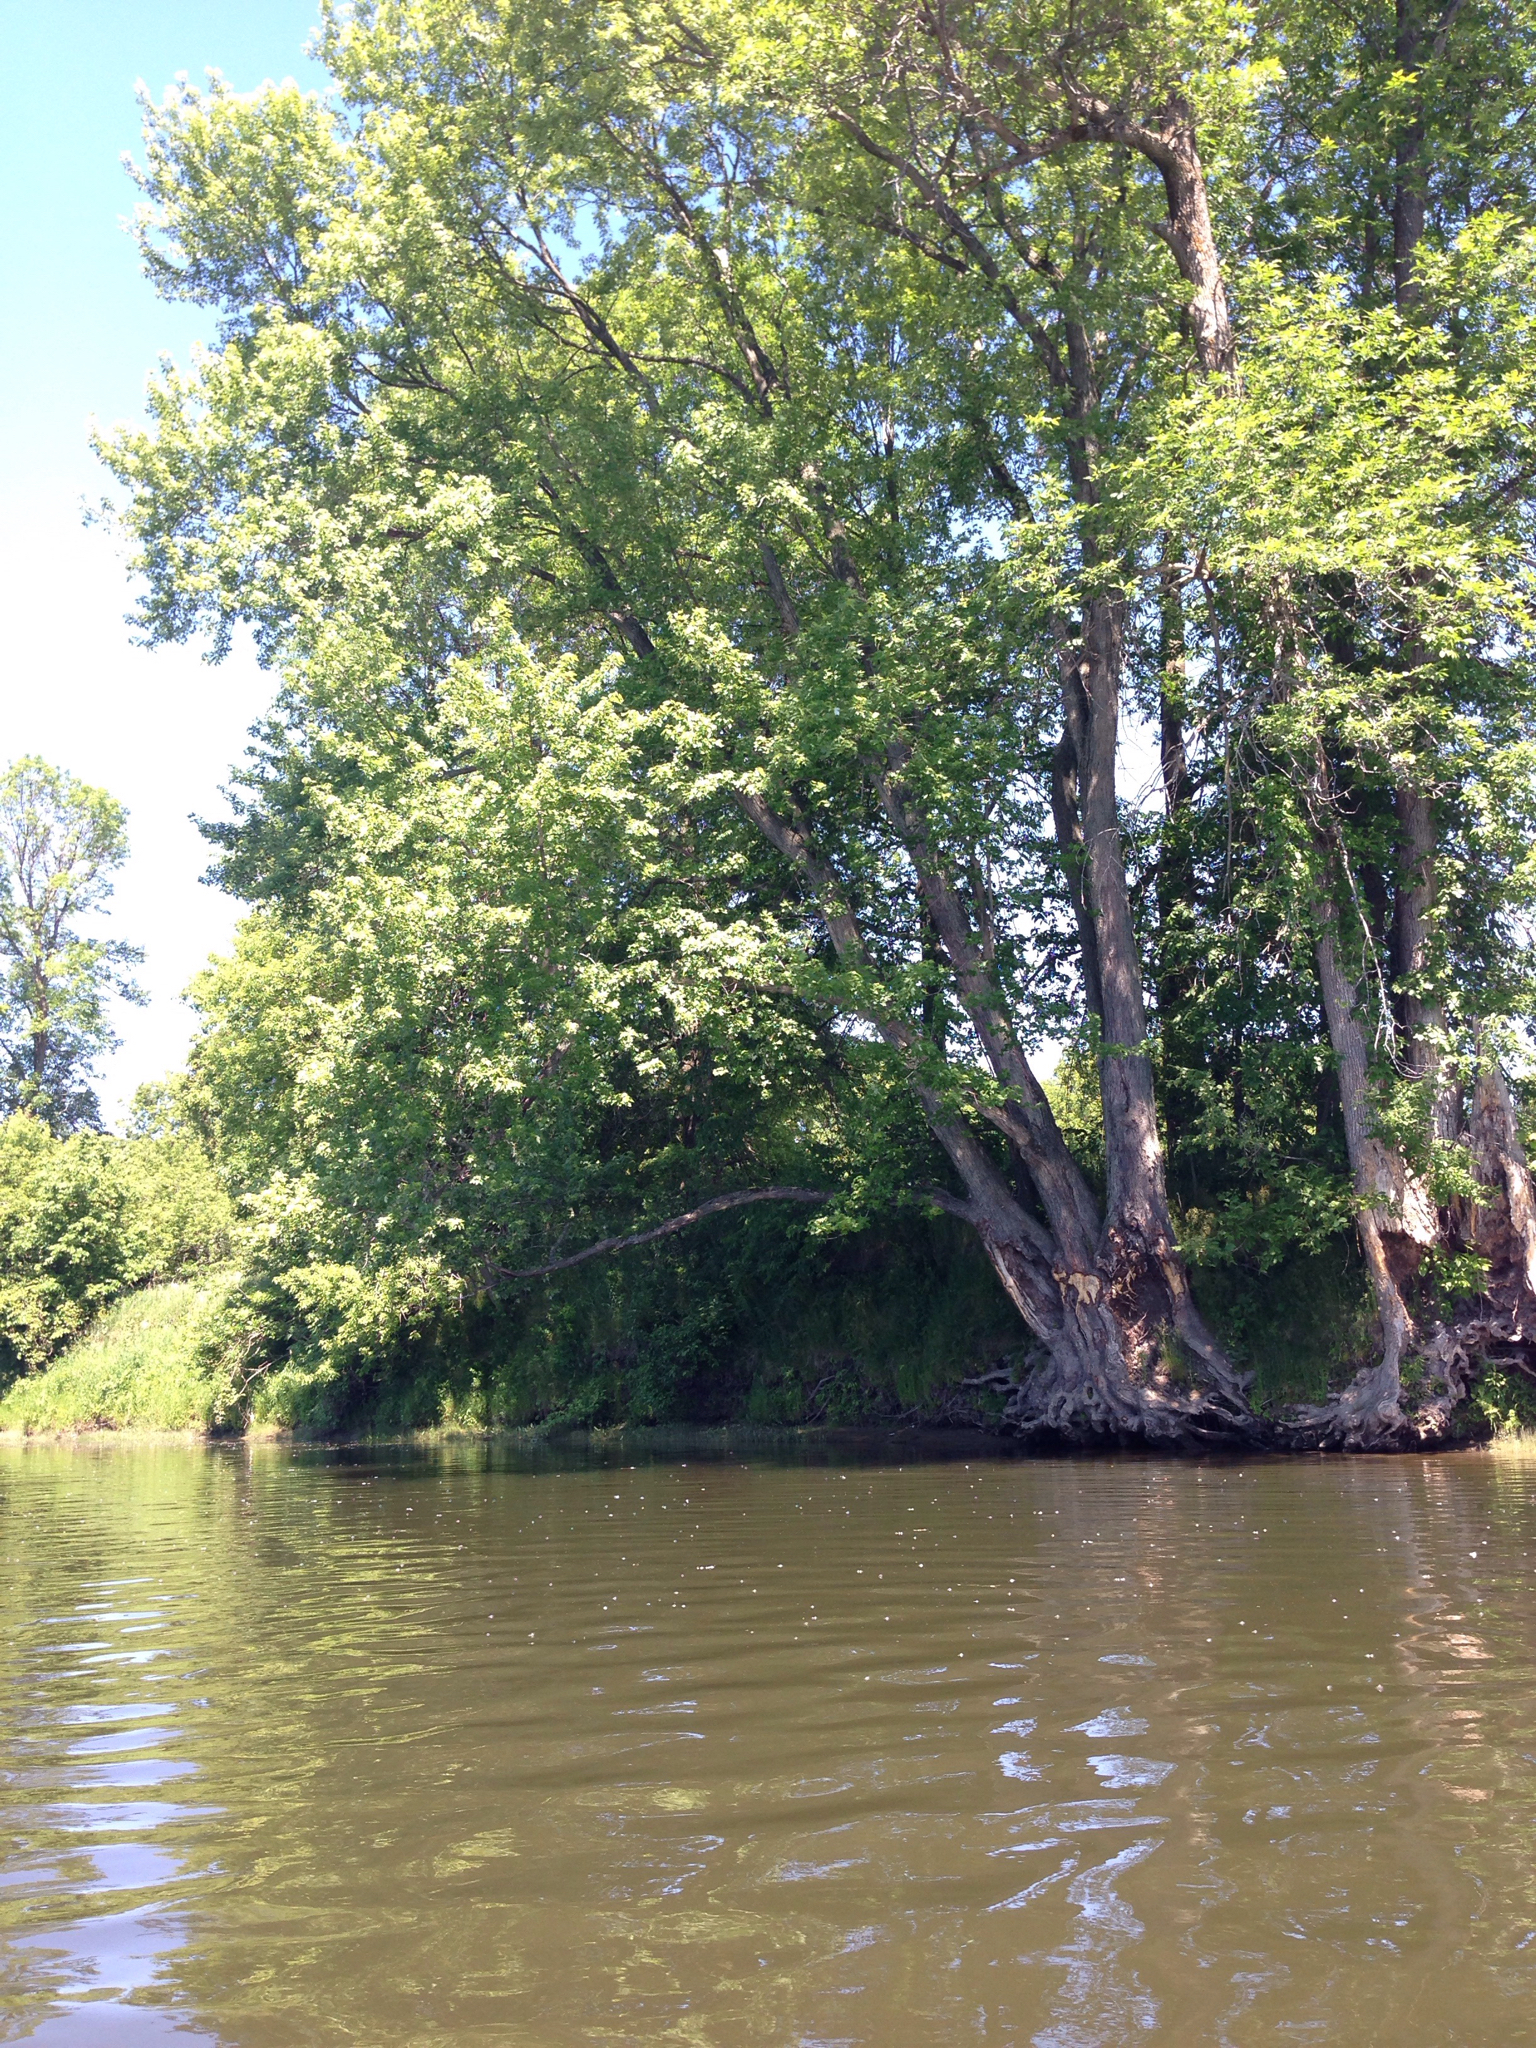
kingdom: Plantae
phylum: Tracheophyta
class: Magnoliopsida
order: Sapindales
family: Sapindaceae
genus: Acer
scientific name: Acer saccharinum
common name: Silver maple
